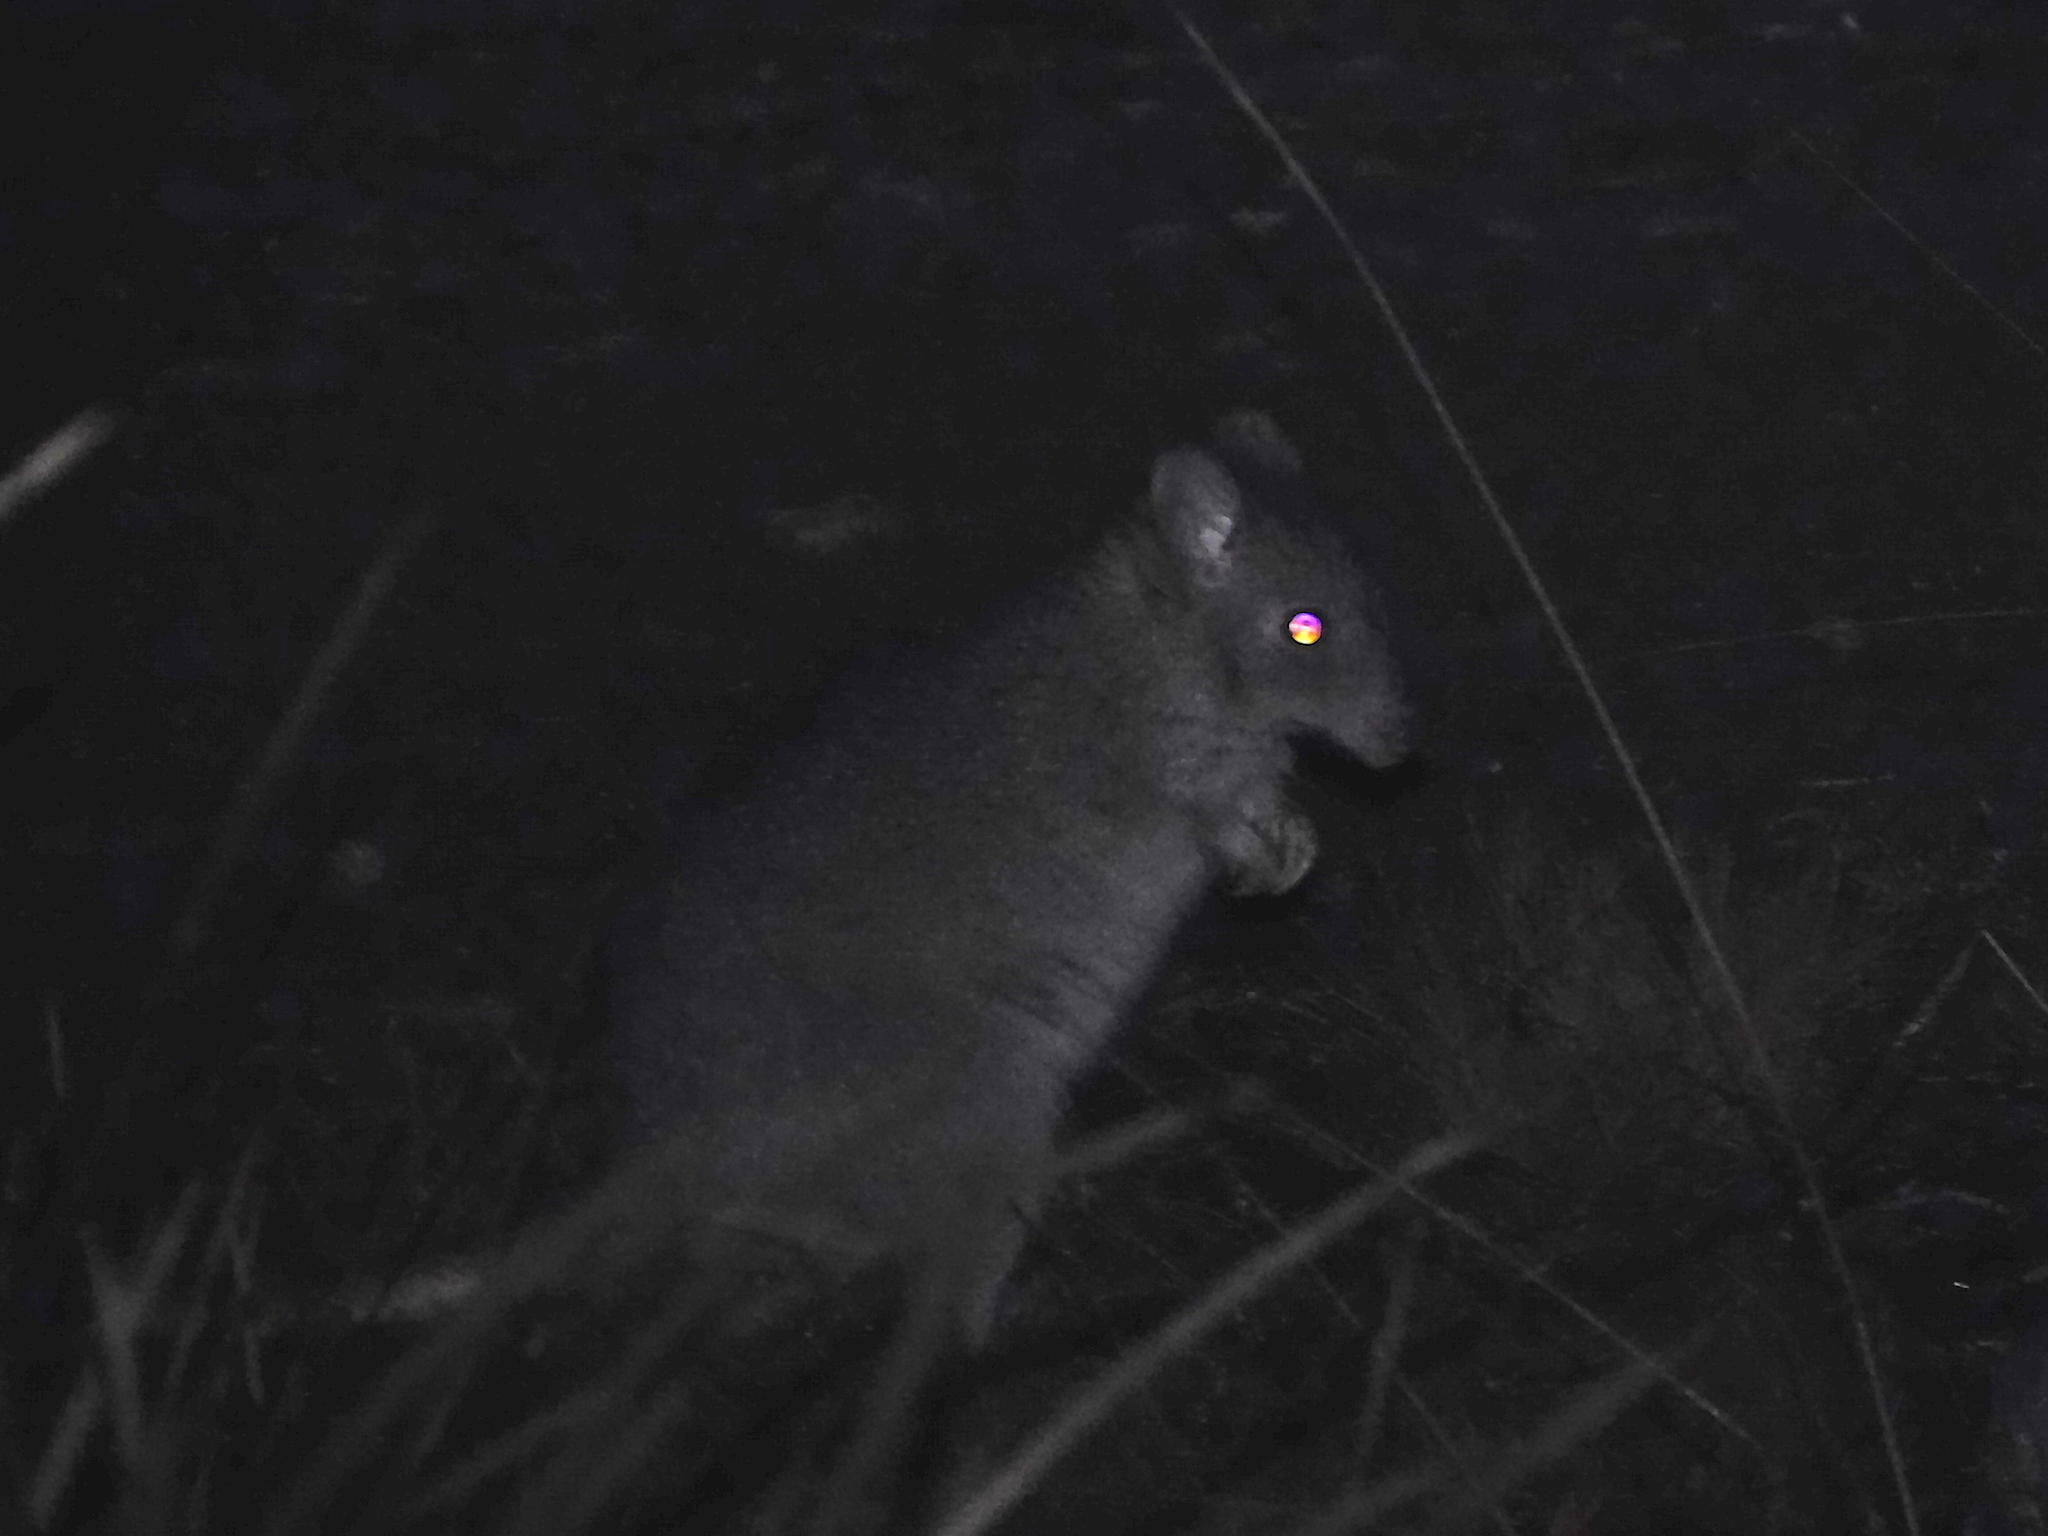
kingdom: Animalia
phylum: Chordata
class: Mammalia
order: Diprotodontia
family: Potoroidae
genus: Bettongia
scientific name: Bettongia gaimardi
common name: Eastern bettong
